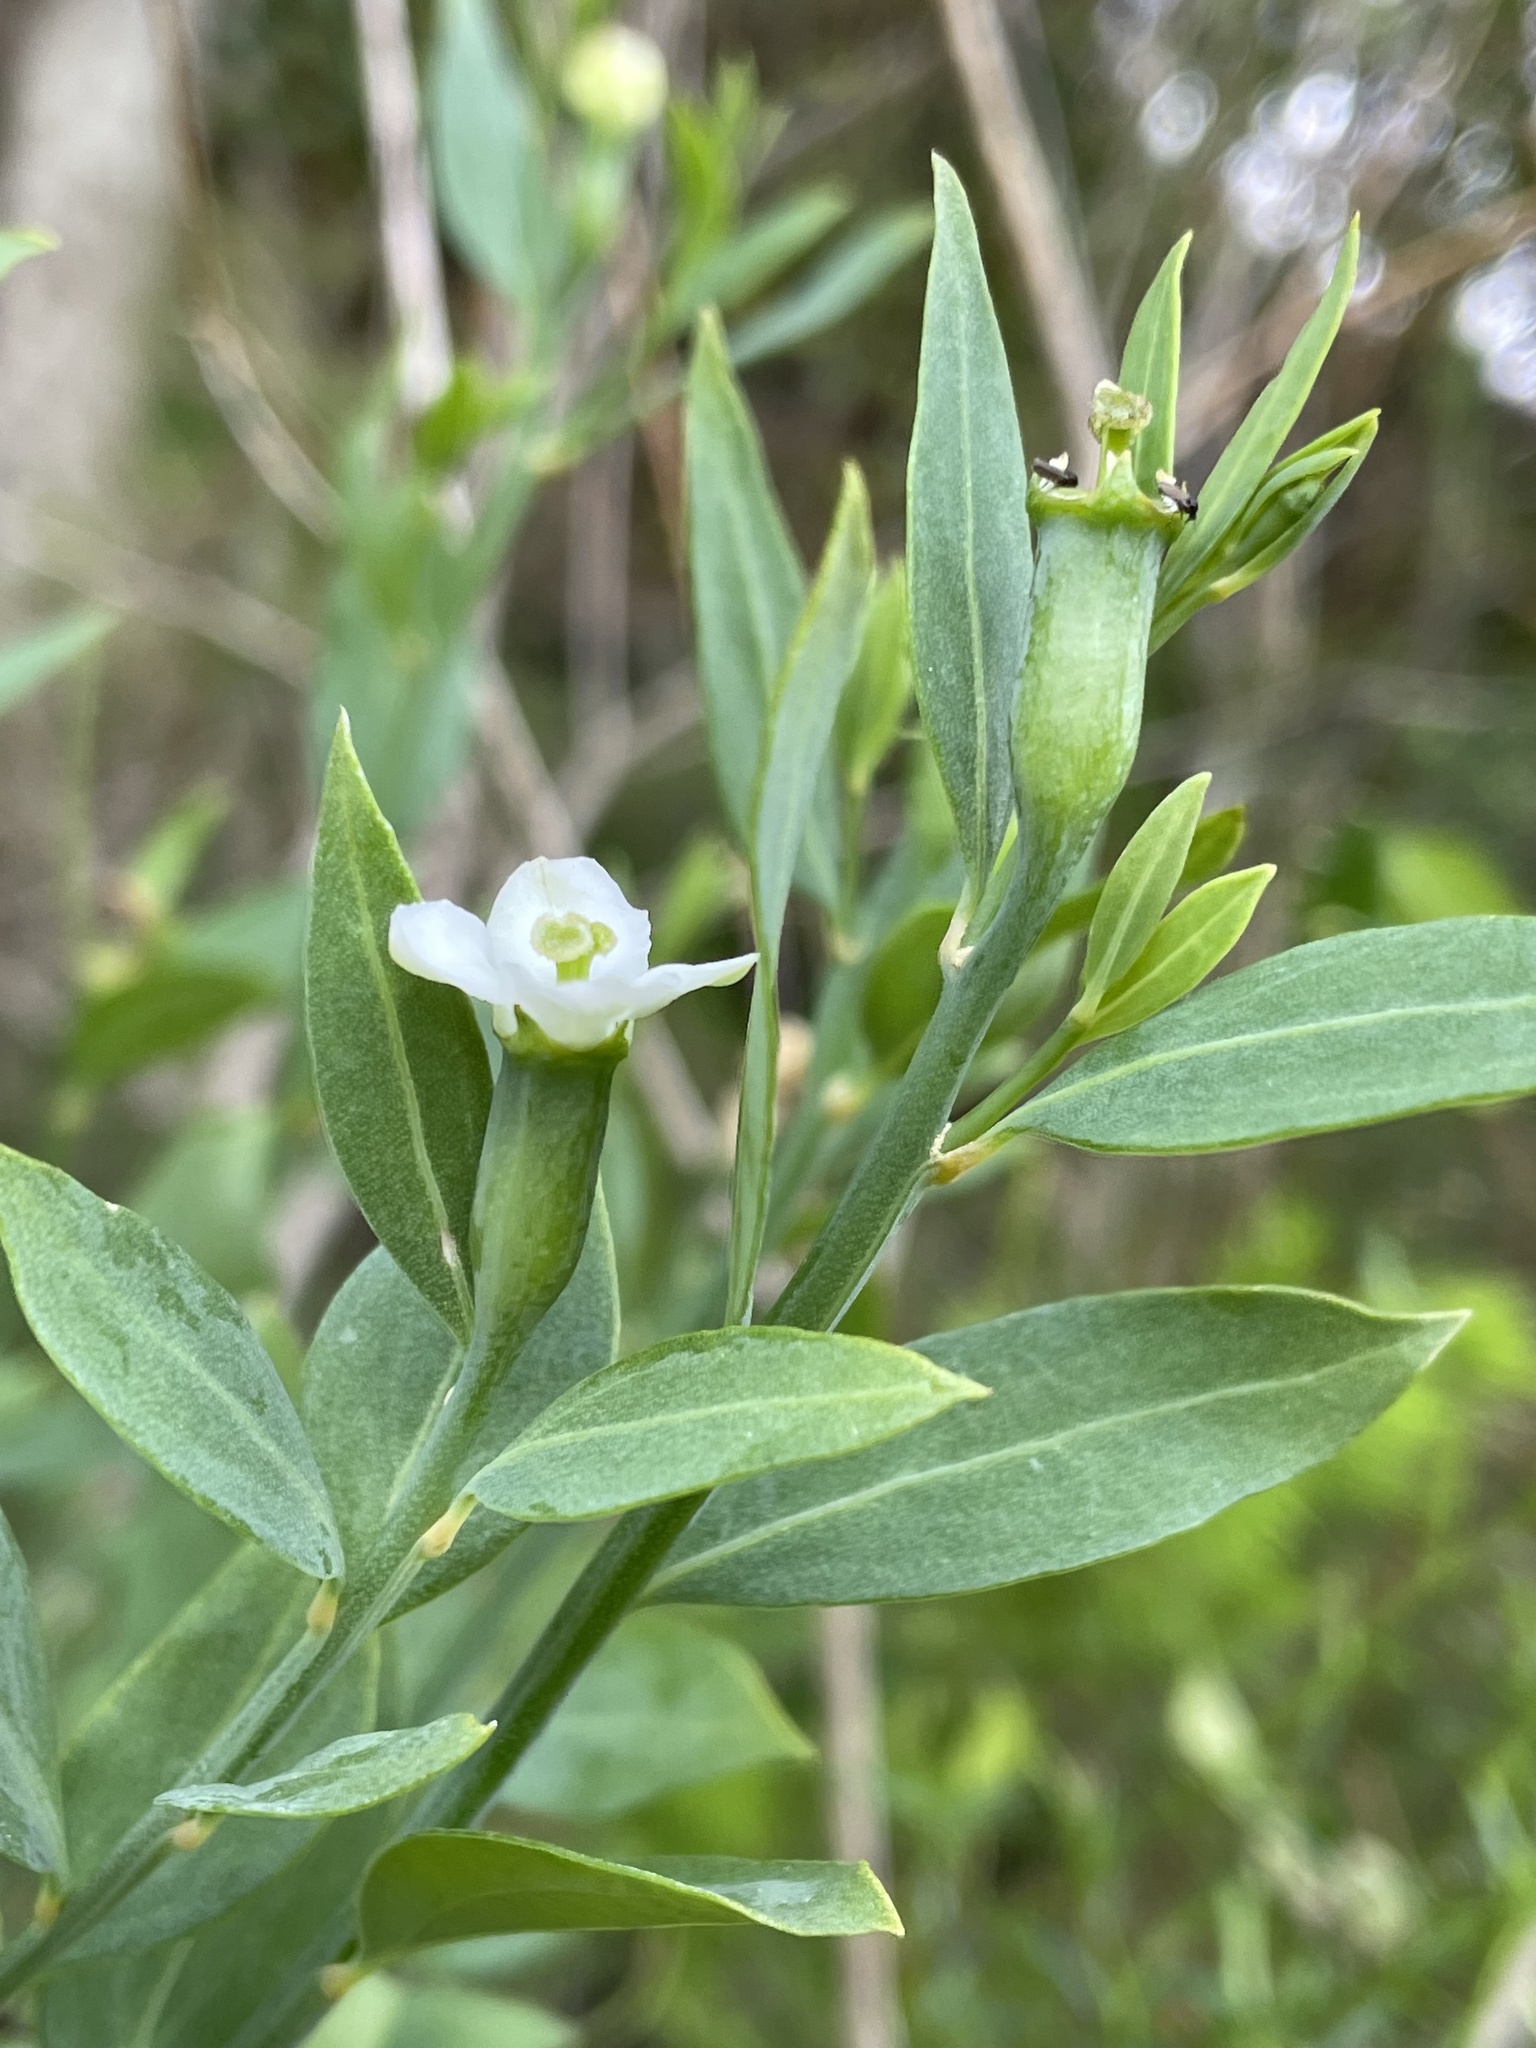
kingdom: Plantae
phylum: Tracheophyta
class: Magnoliopsida
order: Solanales
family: Montiniaceae
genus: Montinia
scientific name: Montinia caryophyllacea
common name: Wild clove-bush
